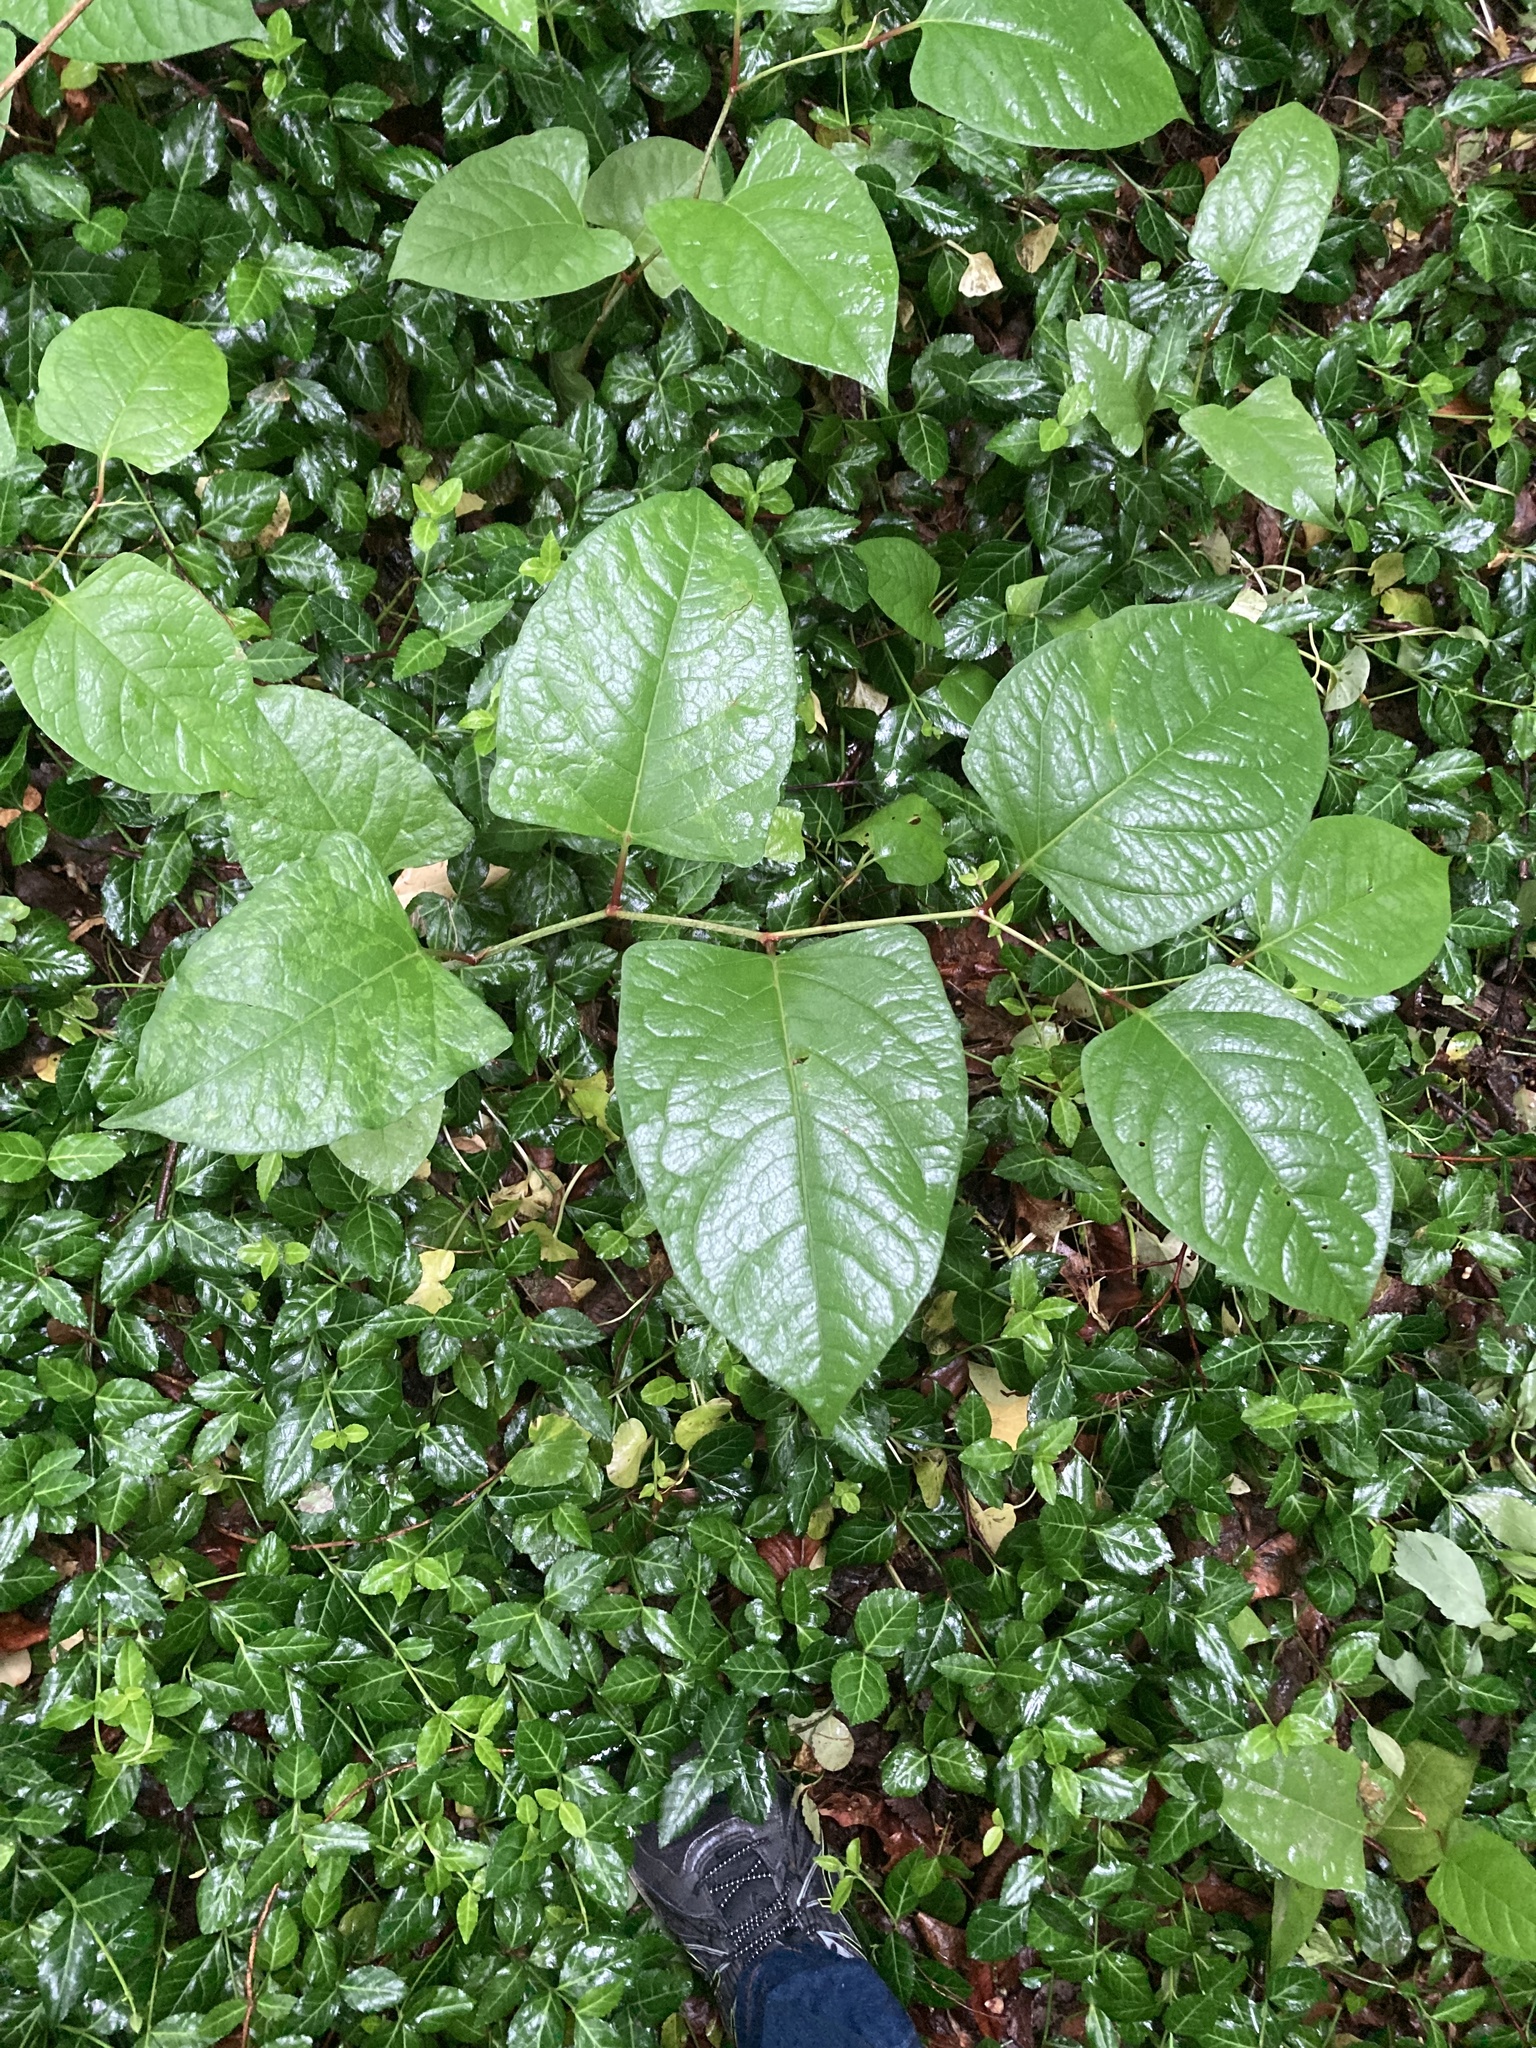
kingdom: Plantae
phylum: Tracheophyta
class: Magnoliopsida
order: Caryophyllales
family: Polygonaceae
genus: Reynoutria
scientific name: Reynoutria japonica
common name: Japanese knotweed
